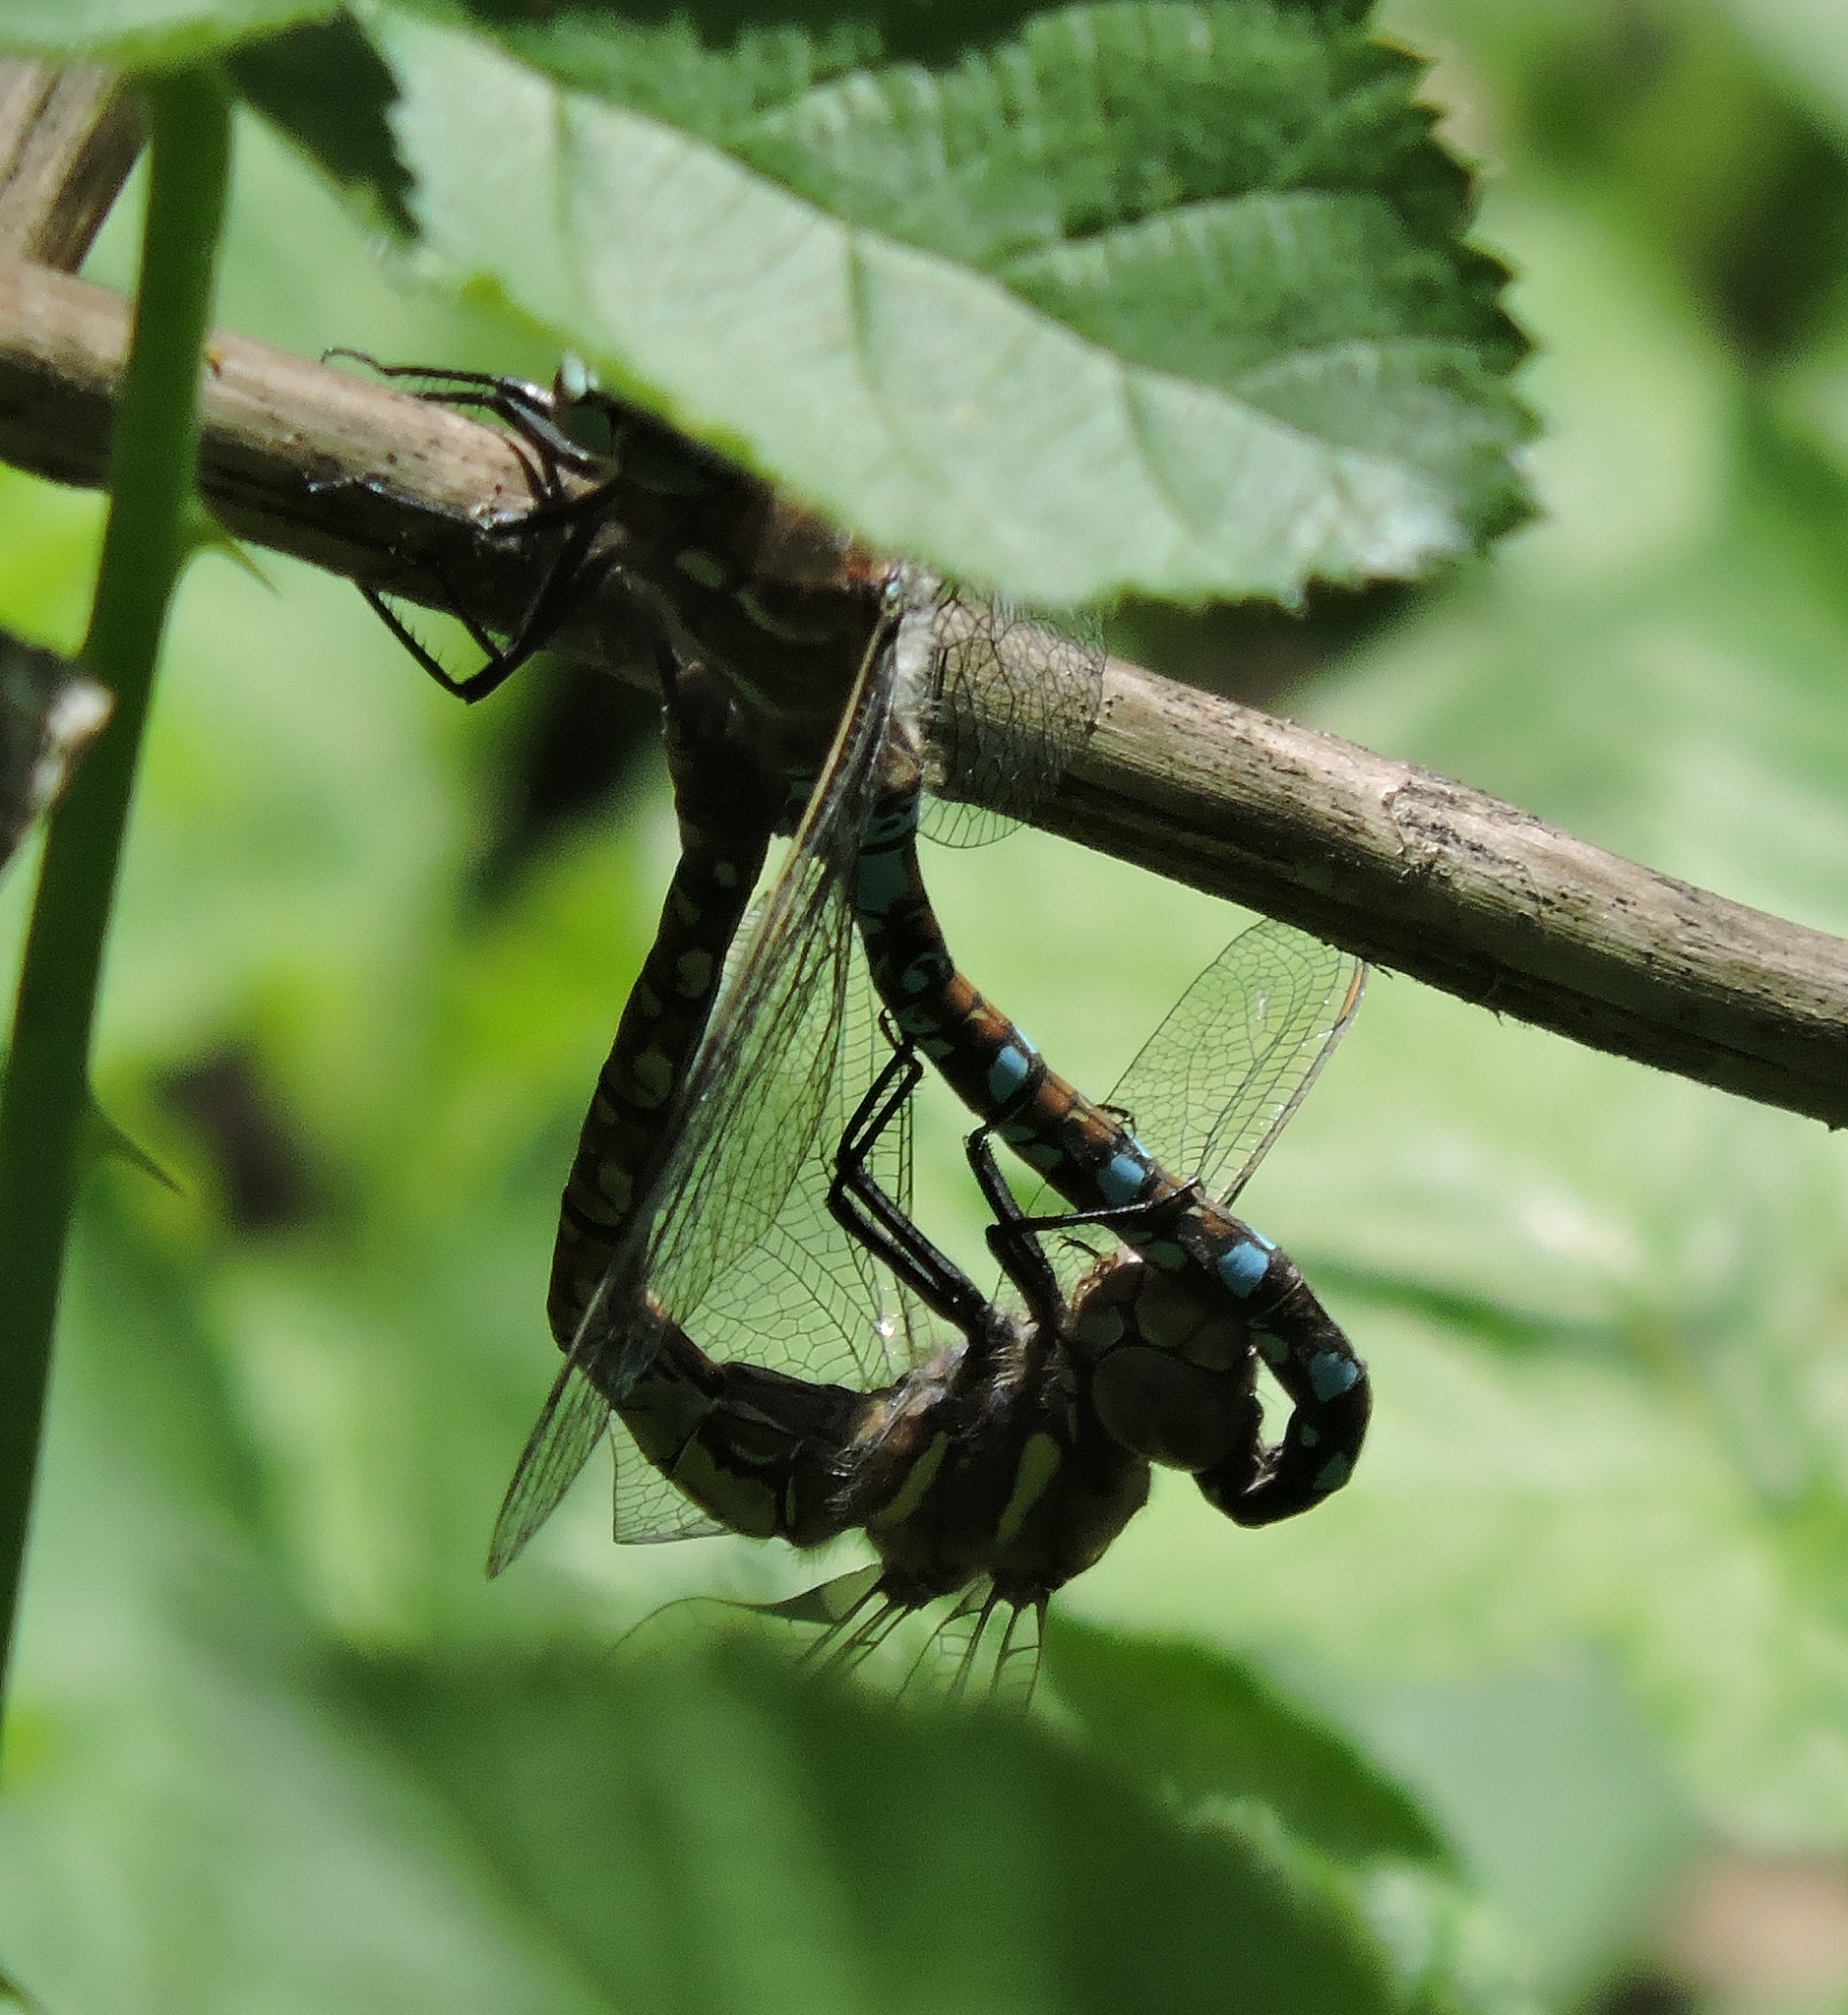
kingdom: Animalia
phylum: Arthropoda
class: Insecta
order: Odonata
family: Aeshnidae
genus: Rhionaeschna
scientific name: Rhionaeschna californica
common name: California darner
